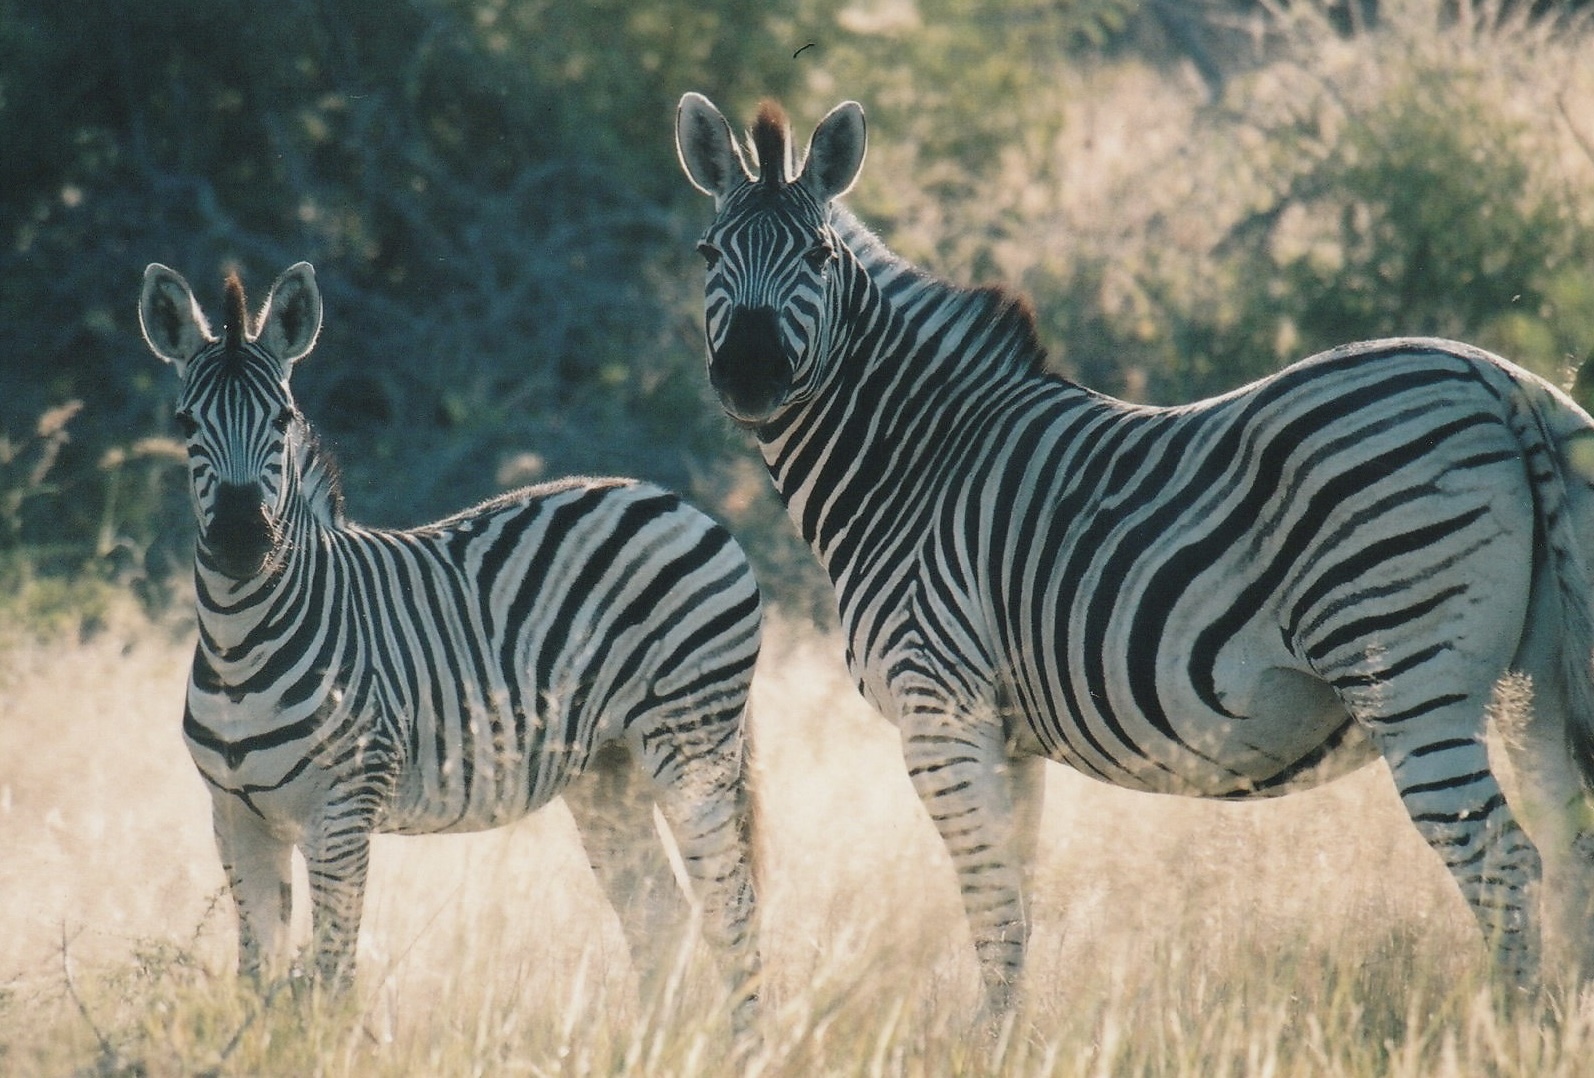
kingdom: Animalia
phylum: Chordata
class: Mammalia
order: Perissodactyla
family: Equidae
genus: Equus
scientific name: Equus quagga
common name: Plains zebra
